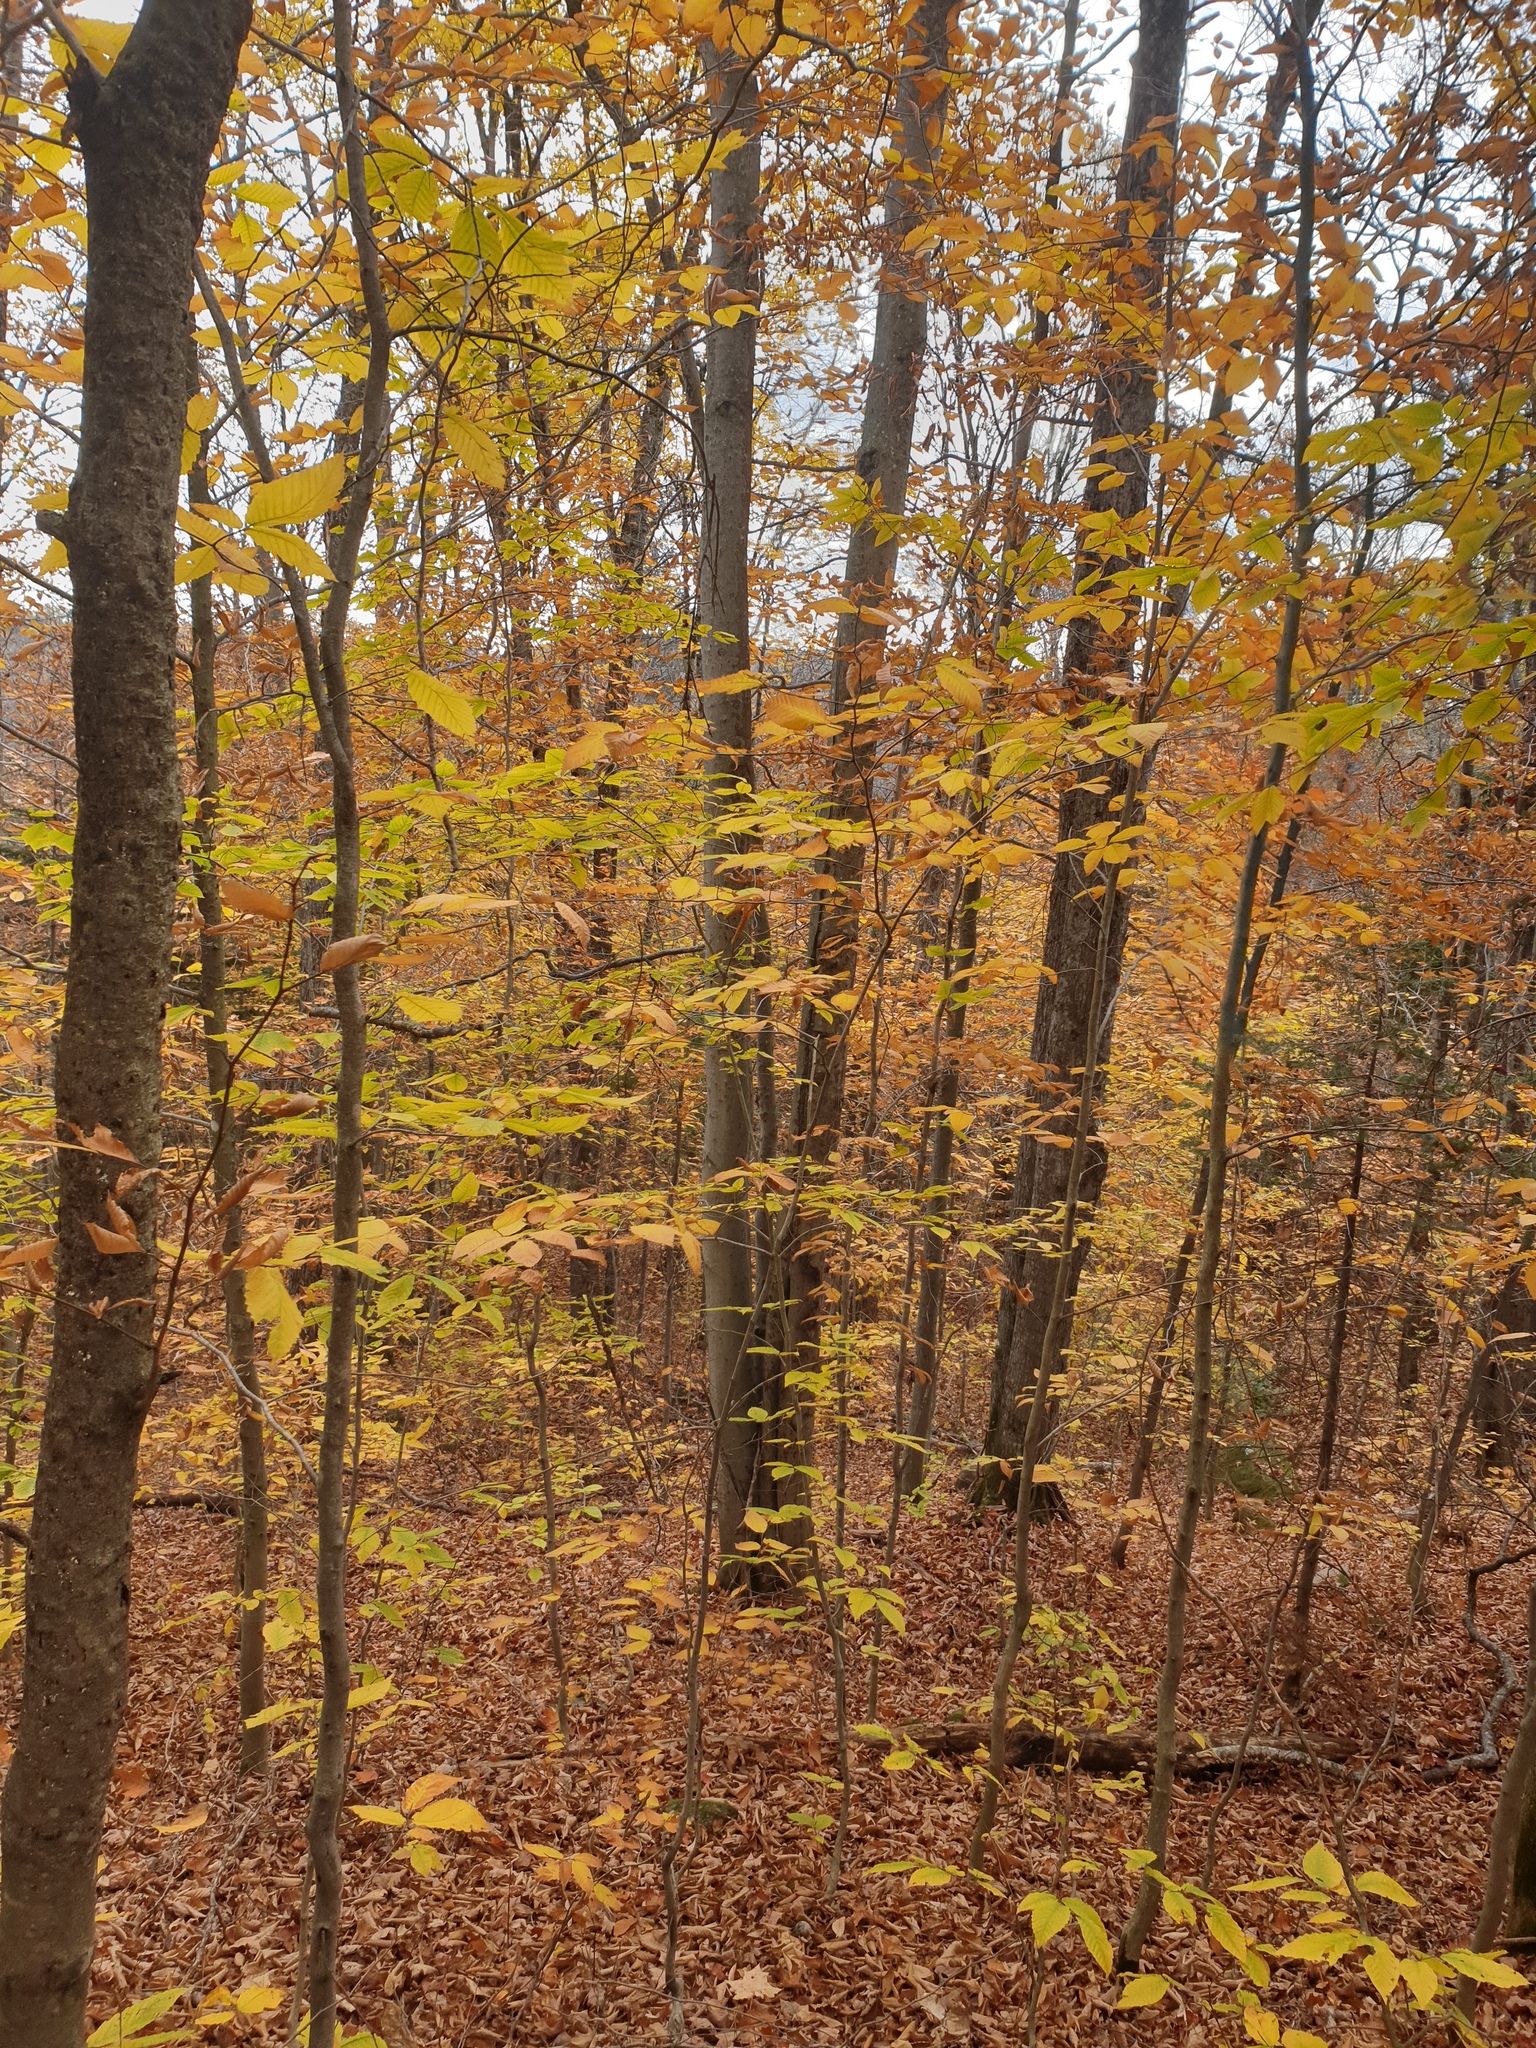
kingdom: Plantae
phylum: Tracheophyta
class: Magnoliopsida
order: Fagales
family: Fagaceae
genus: Fagus
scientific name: Fagus grandifolia
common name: American beech
